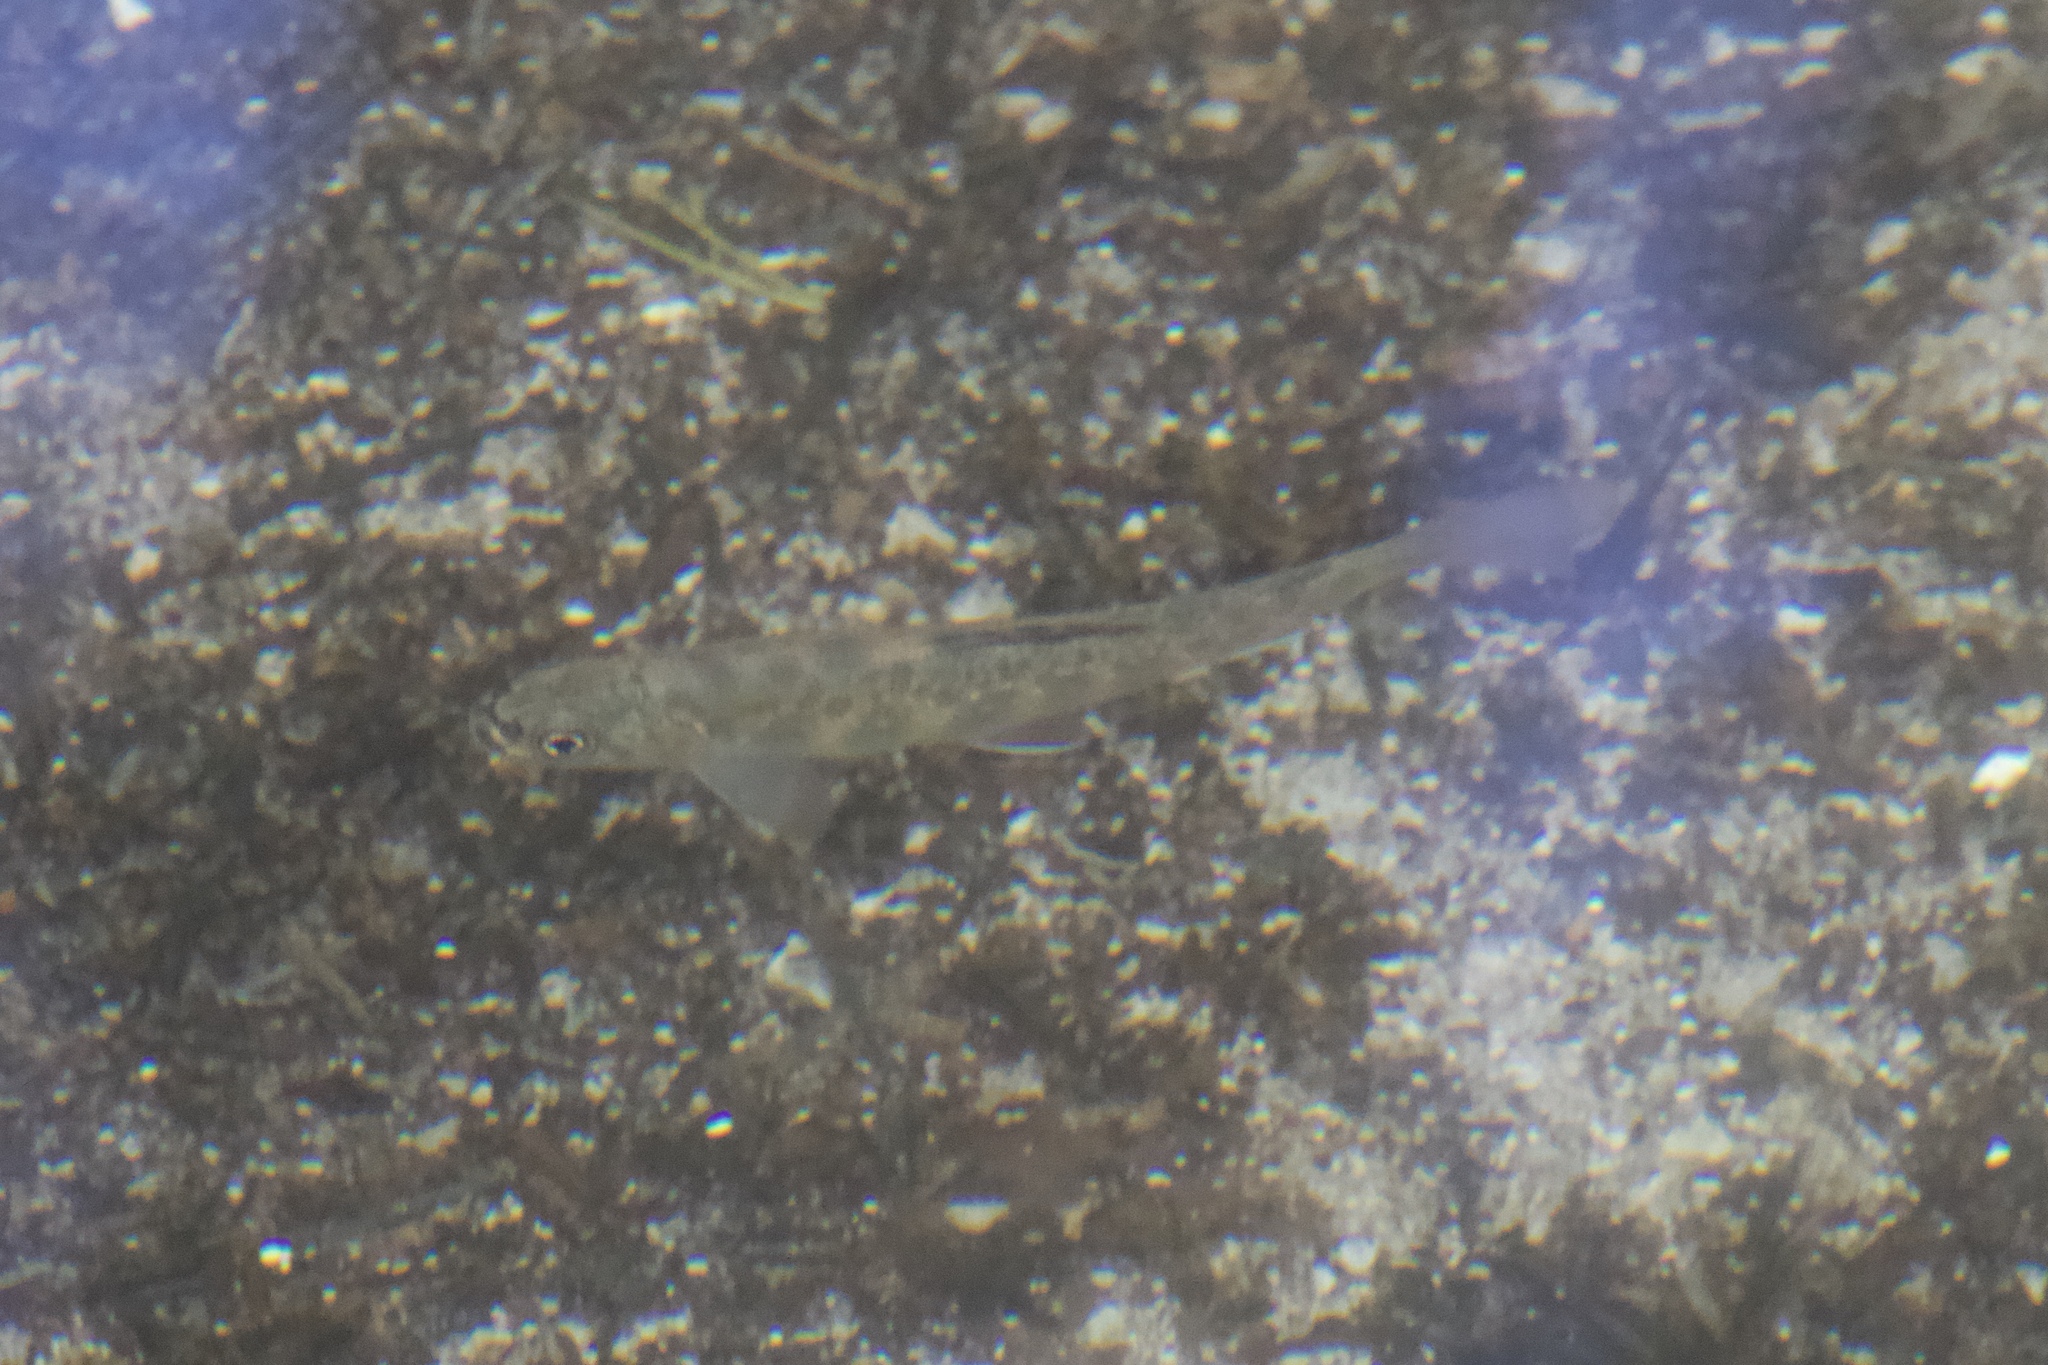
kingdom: Animalia
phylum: Chordata
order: Salmoniformes
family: Salmonidae
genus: Salvelinus
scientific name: Salvelinus fontinalis
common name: Brook trout
